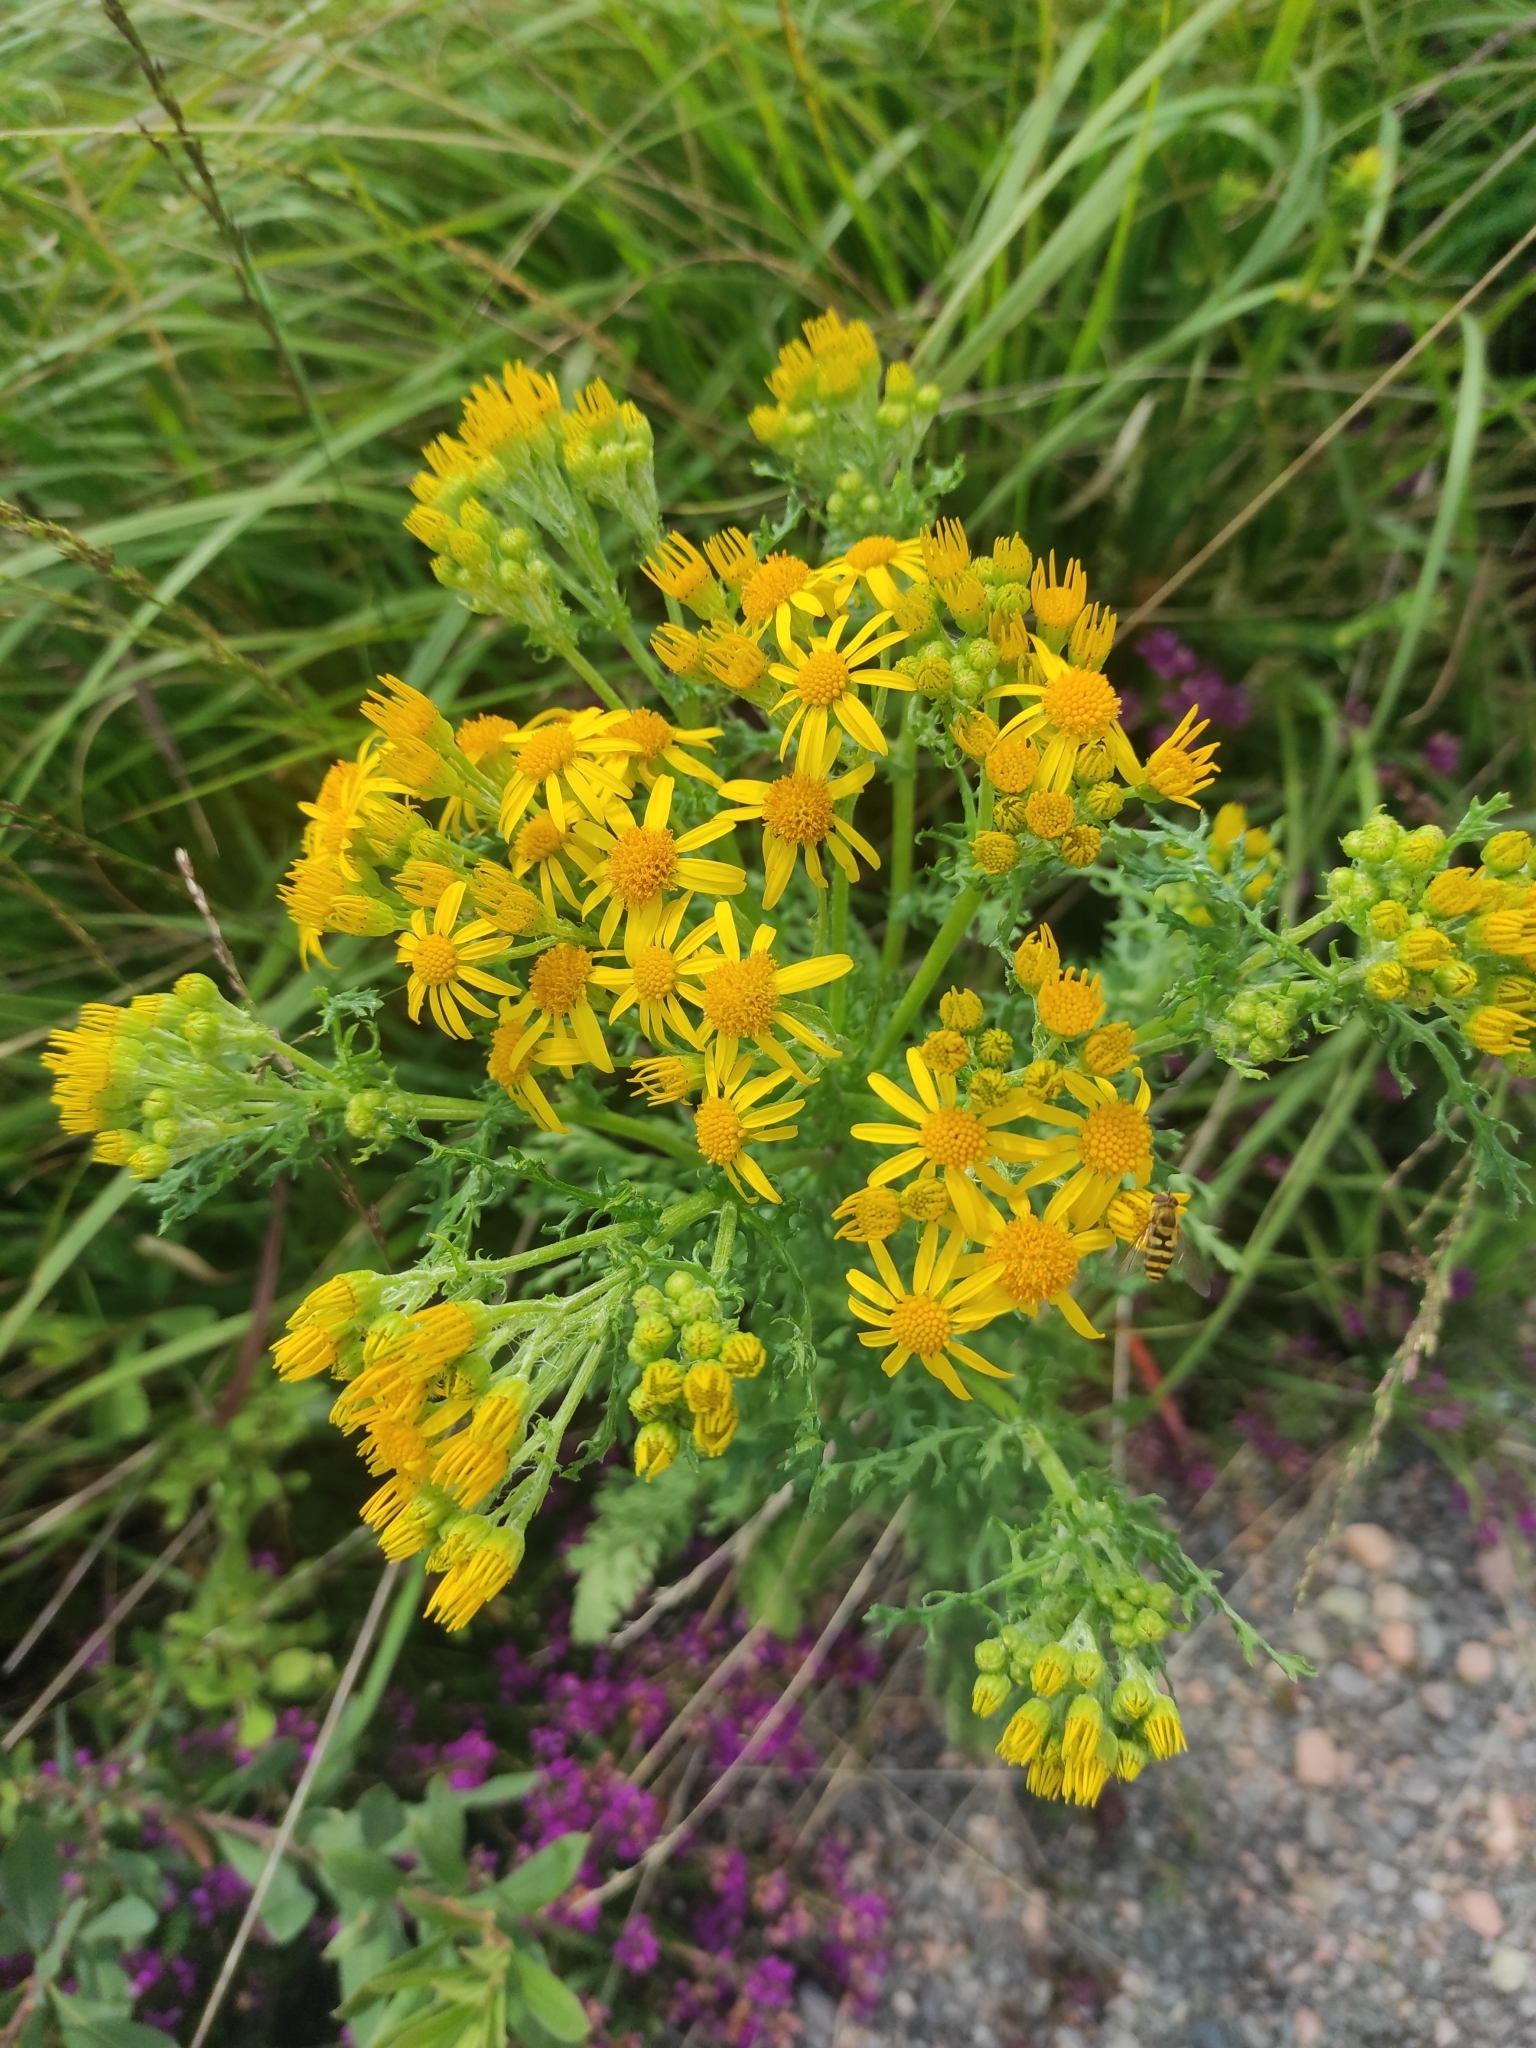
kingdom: Plantae
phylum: Tracheophyta
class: Magnoliopsida
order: Asterales
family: Asteraceae
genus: Jacobaea
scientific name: Jacobaea vulgaris
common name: Stinking willie
